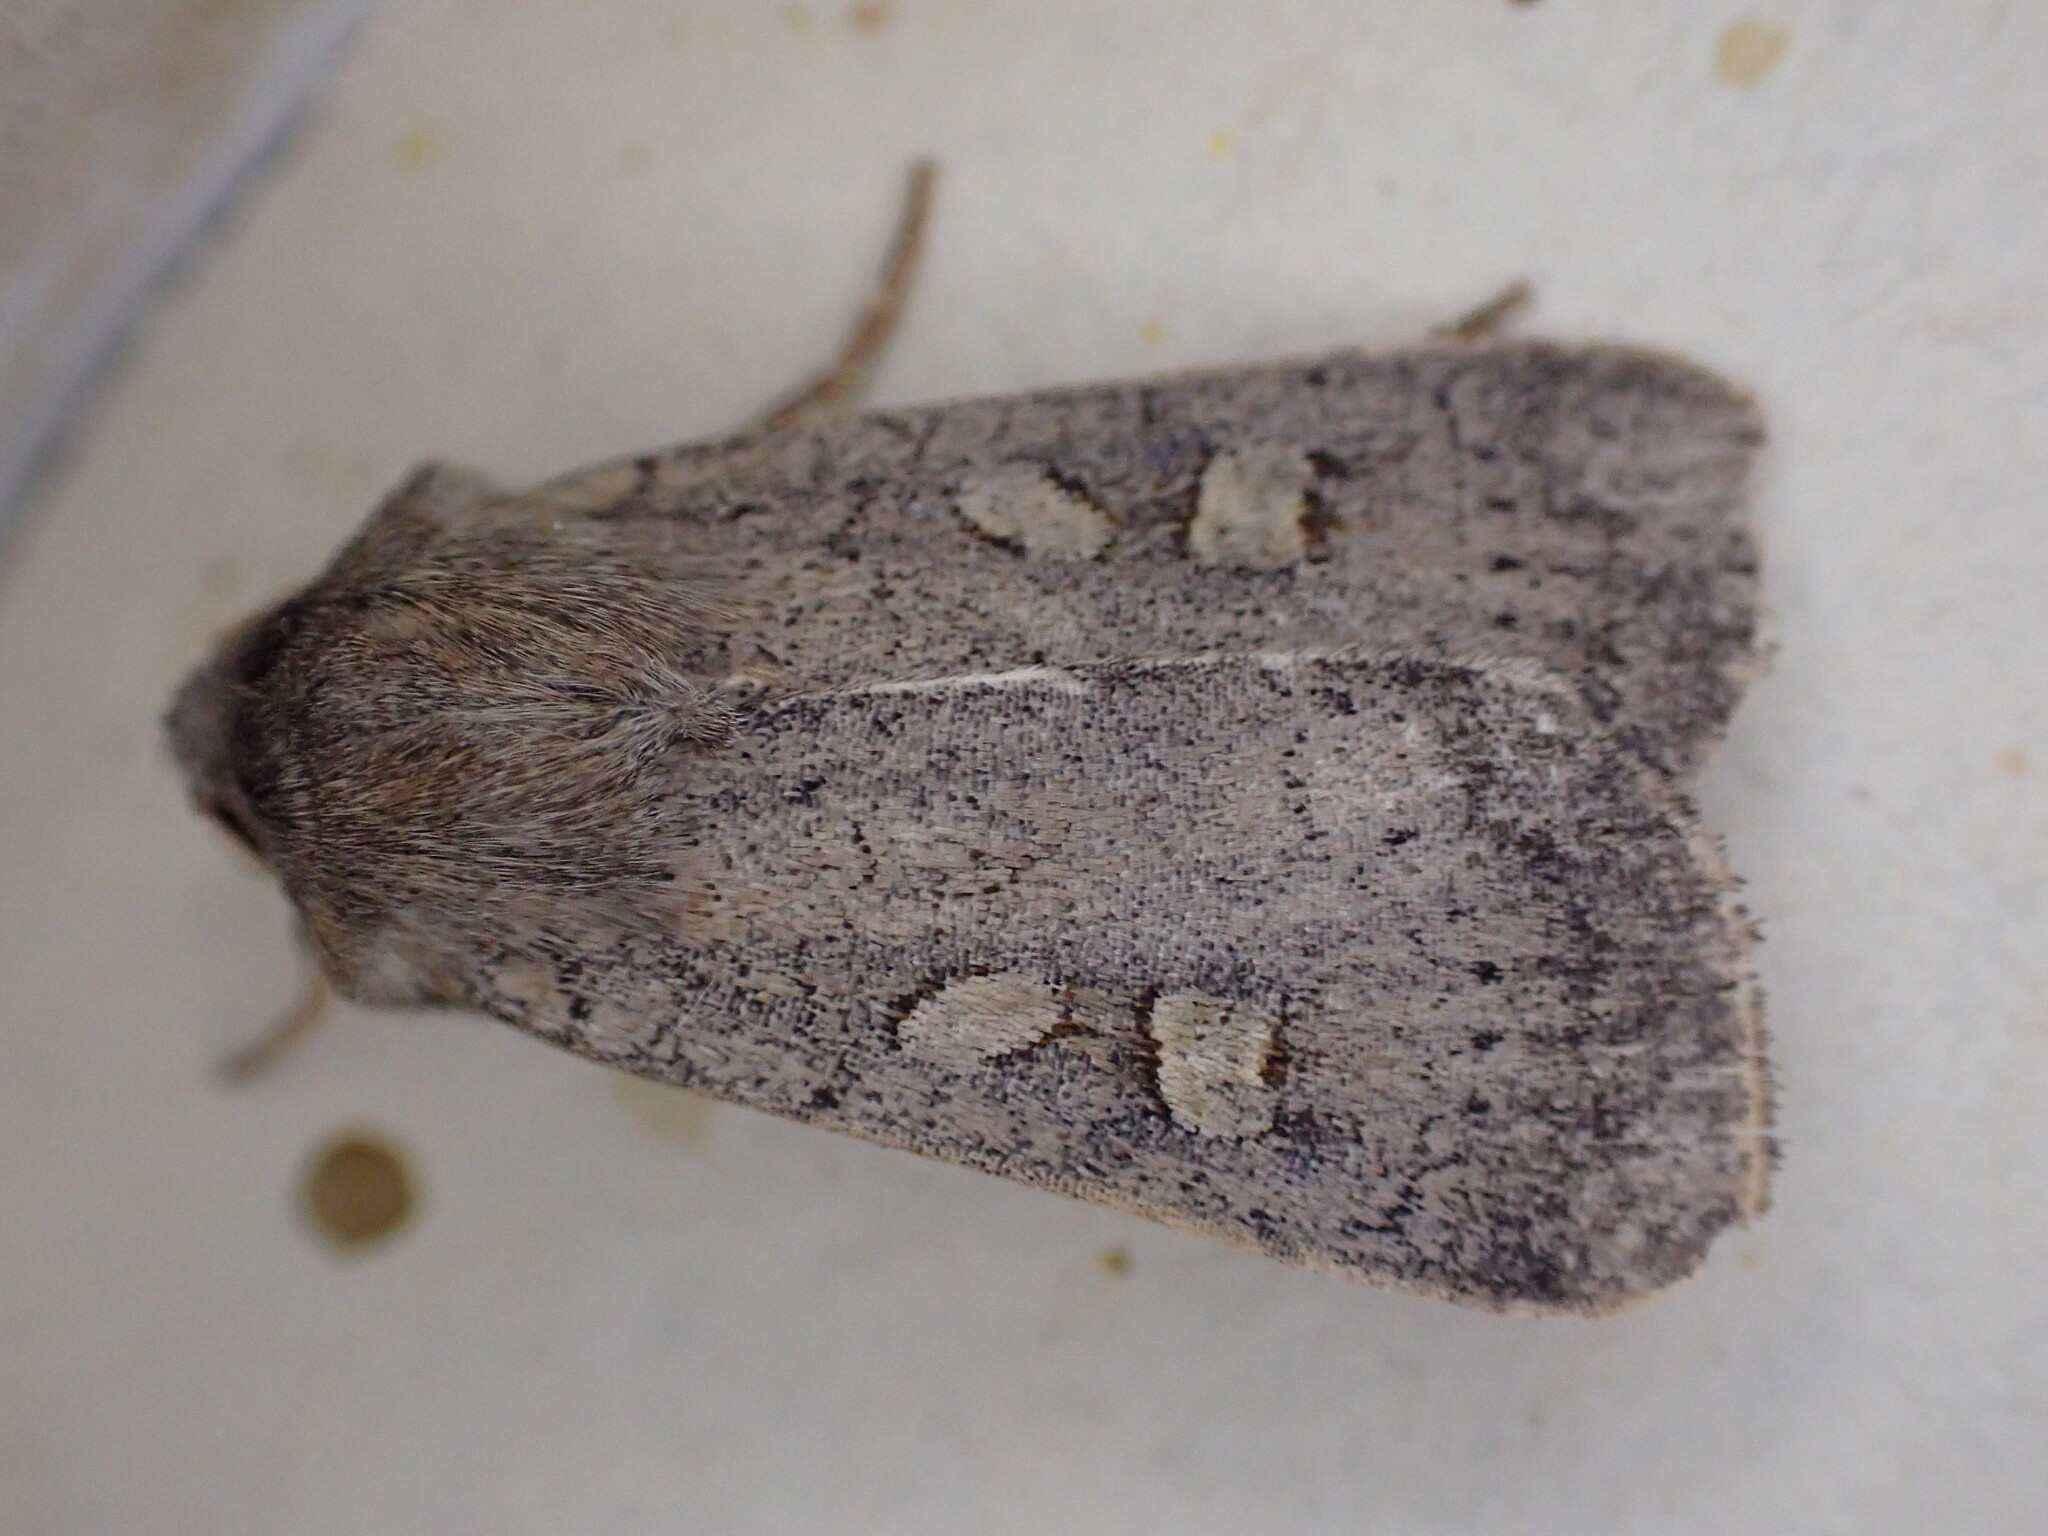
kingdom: Animalia
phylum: Arthropoda
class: Insecta
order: Lepidoptera
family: Noctuidae
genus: Xestia
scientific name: Xestia xanthographa
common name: Square-spot rustic
